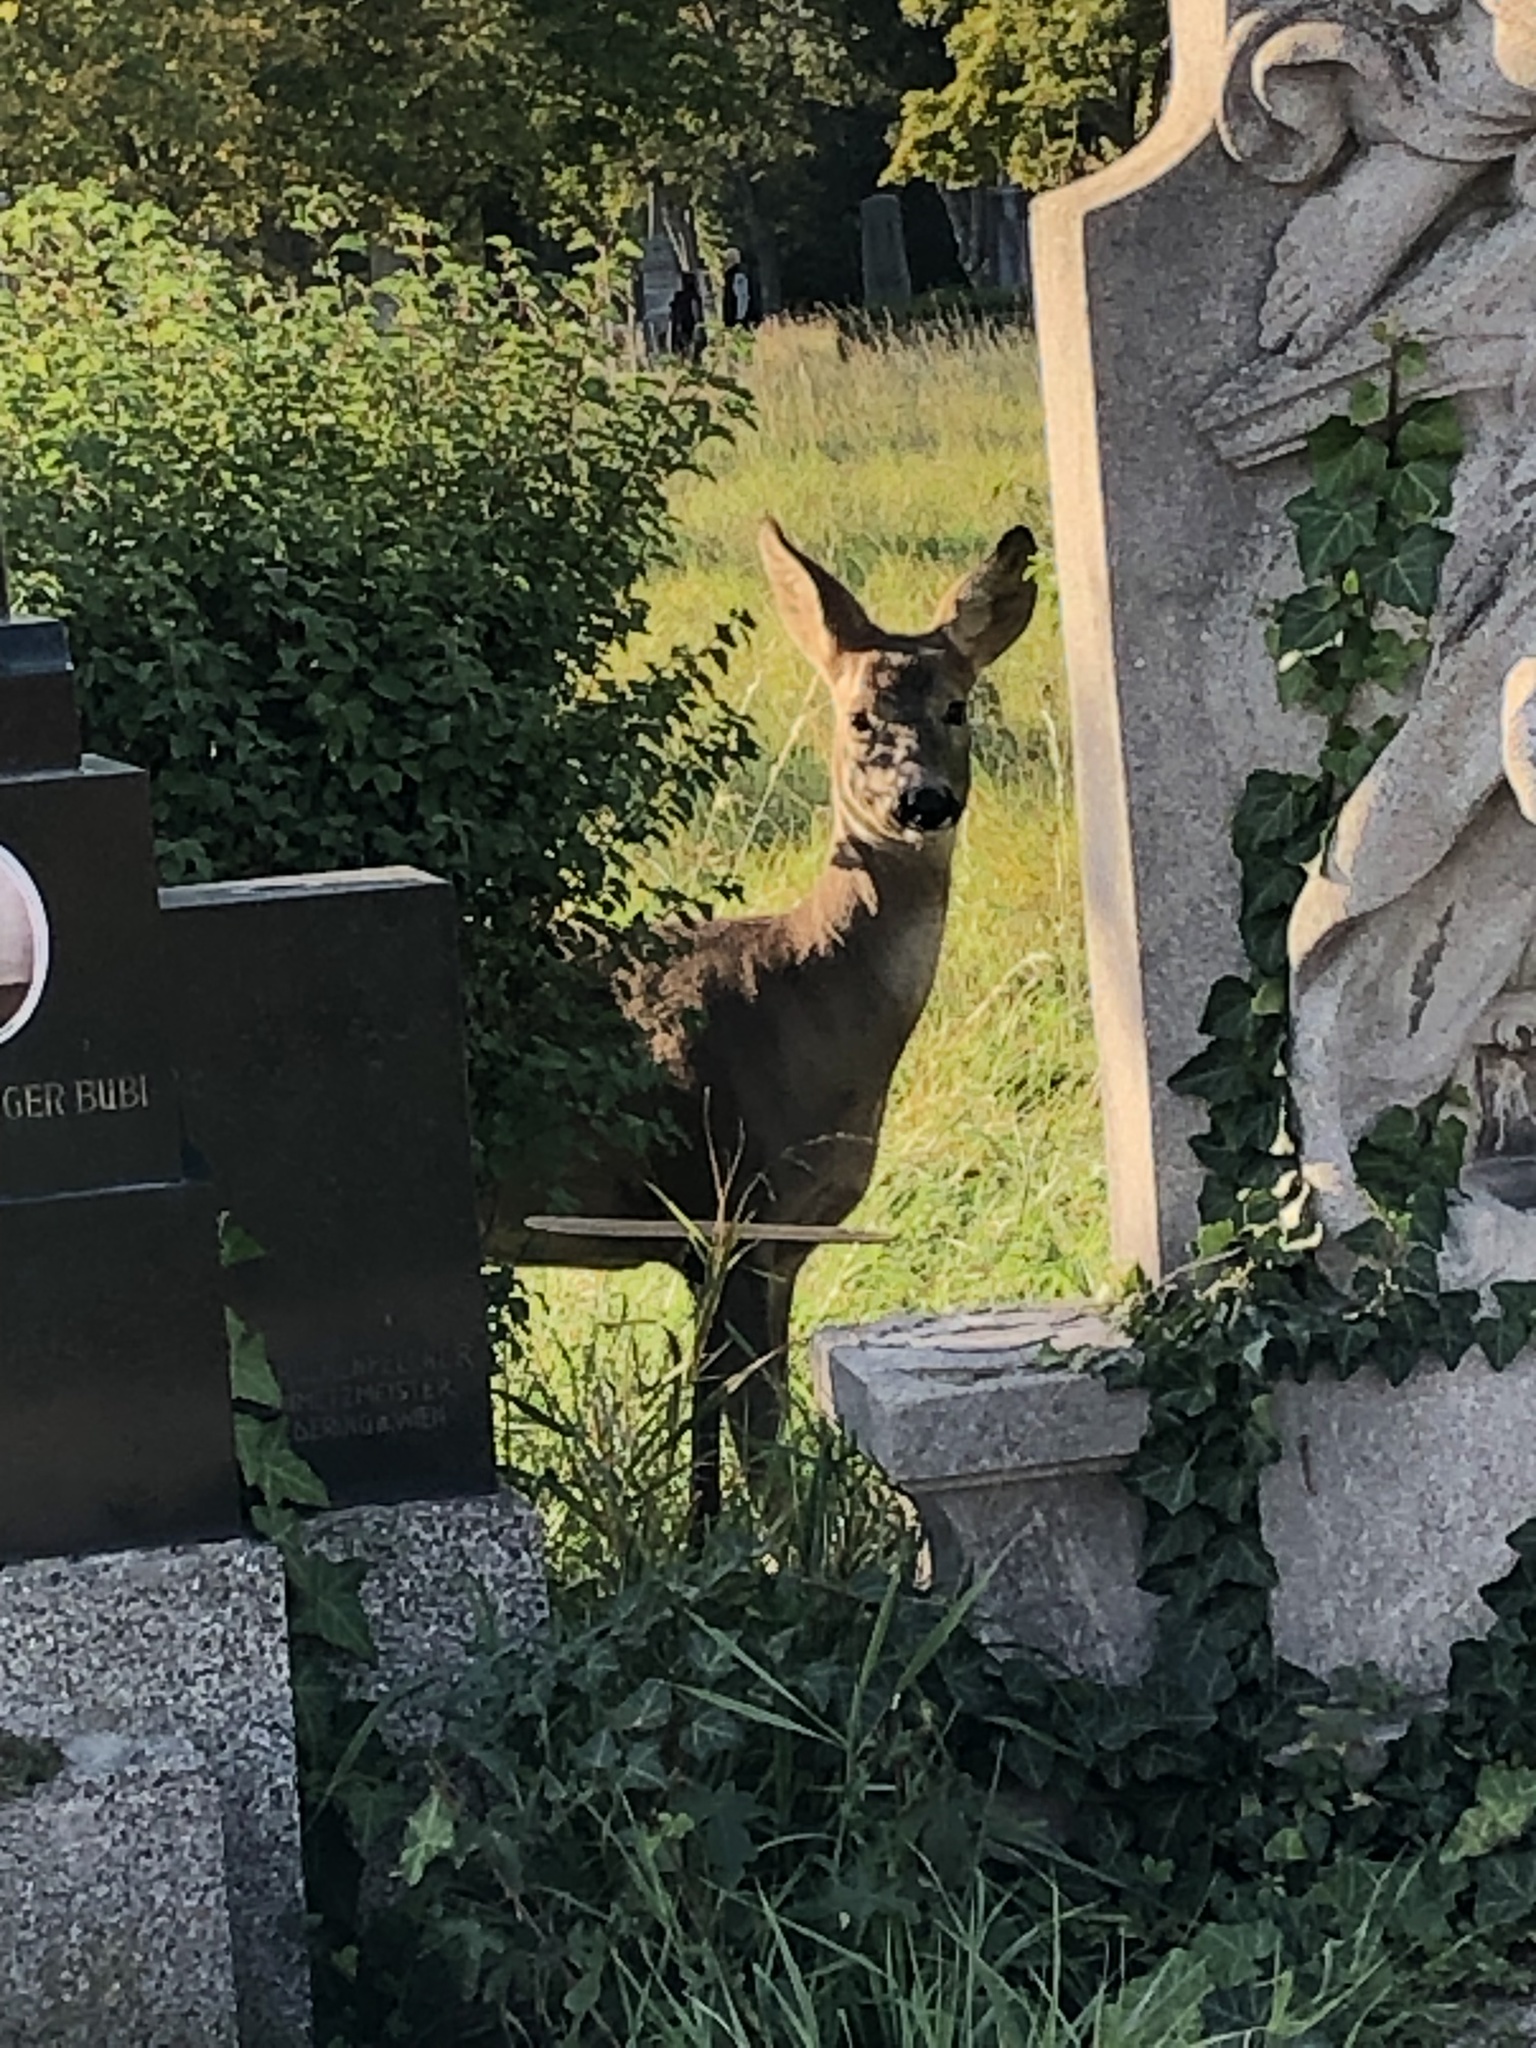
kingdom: Animalia
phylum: Chordata
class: Mammalia
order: Artiodactyla
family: Cervidae
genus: Capreolus
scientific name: Capreolus capreolus
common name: Western roe deer
